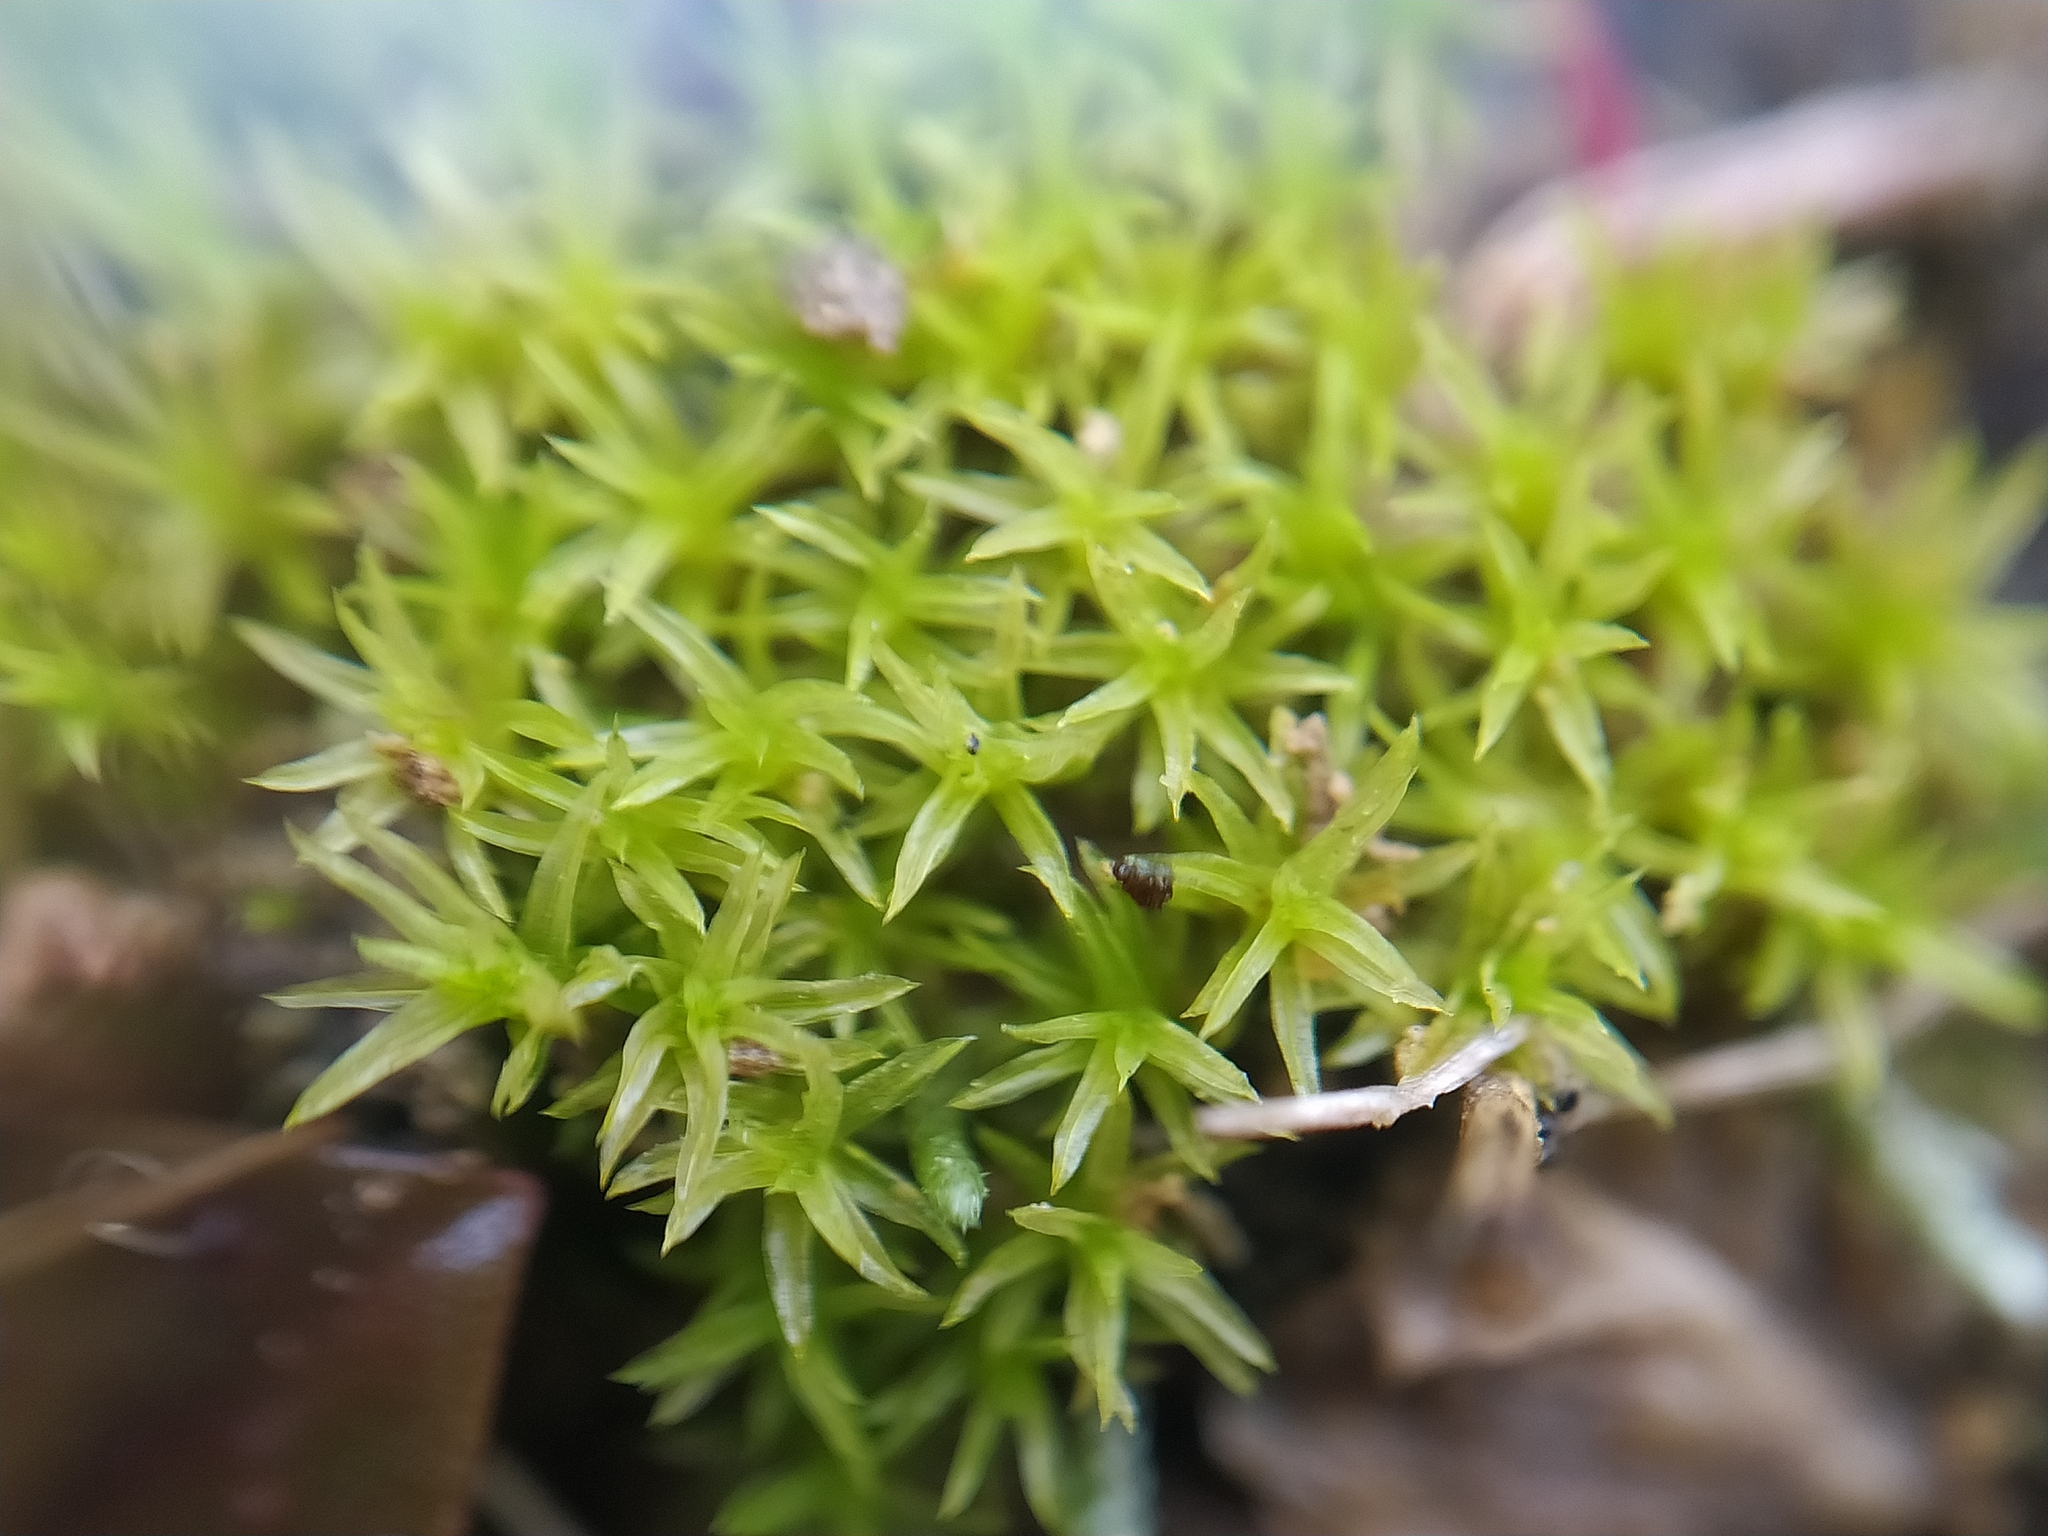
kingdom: Plantae
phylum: Bryophyta
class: Bryopsida
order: Pottiales
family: Pottiaceae
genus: Streblotrichum
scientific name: Streblotrichum convolutum
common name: Lesser bird's-claw beard-moss
